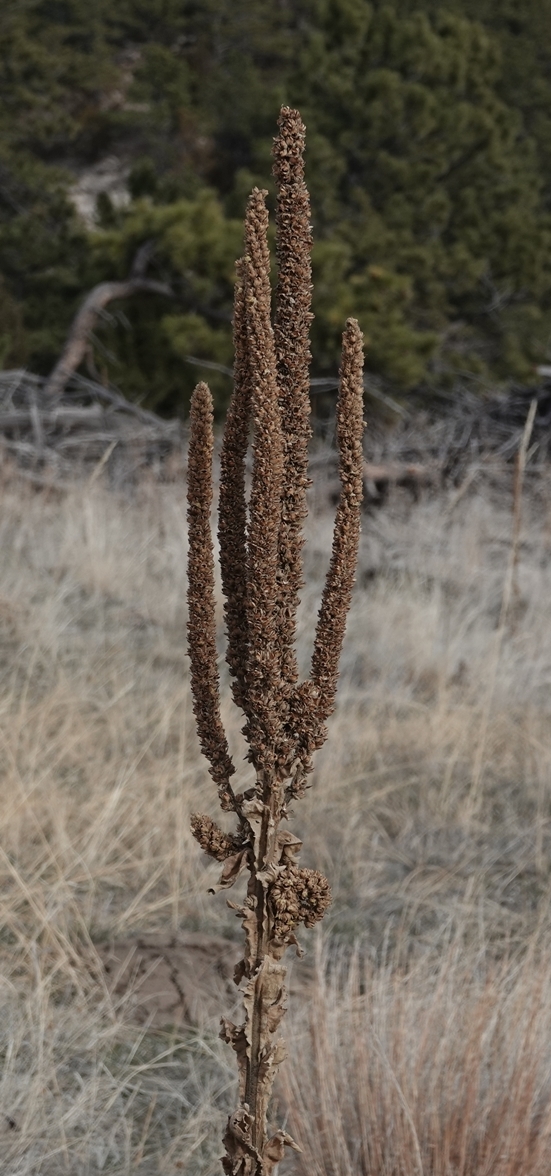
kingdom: Plantae
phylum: Tracheophyta
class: Magnoliopsida
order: Lamiales
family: Scrophulariaceae
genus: Verbascum
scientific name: Verbascum thapsus
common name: Common mullein
